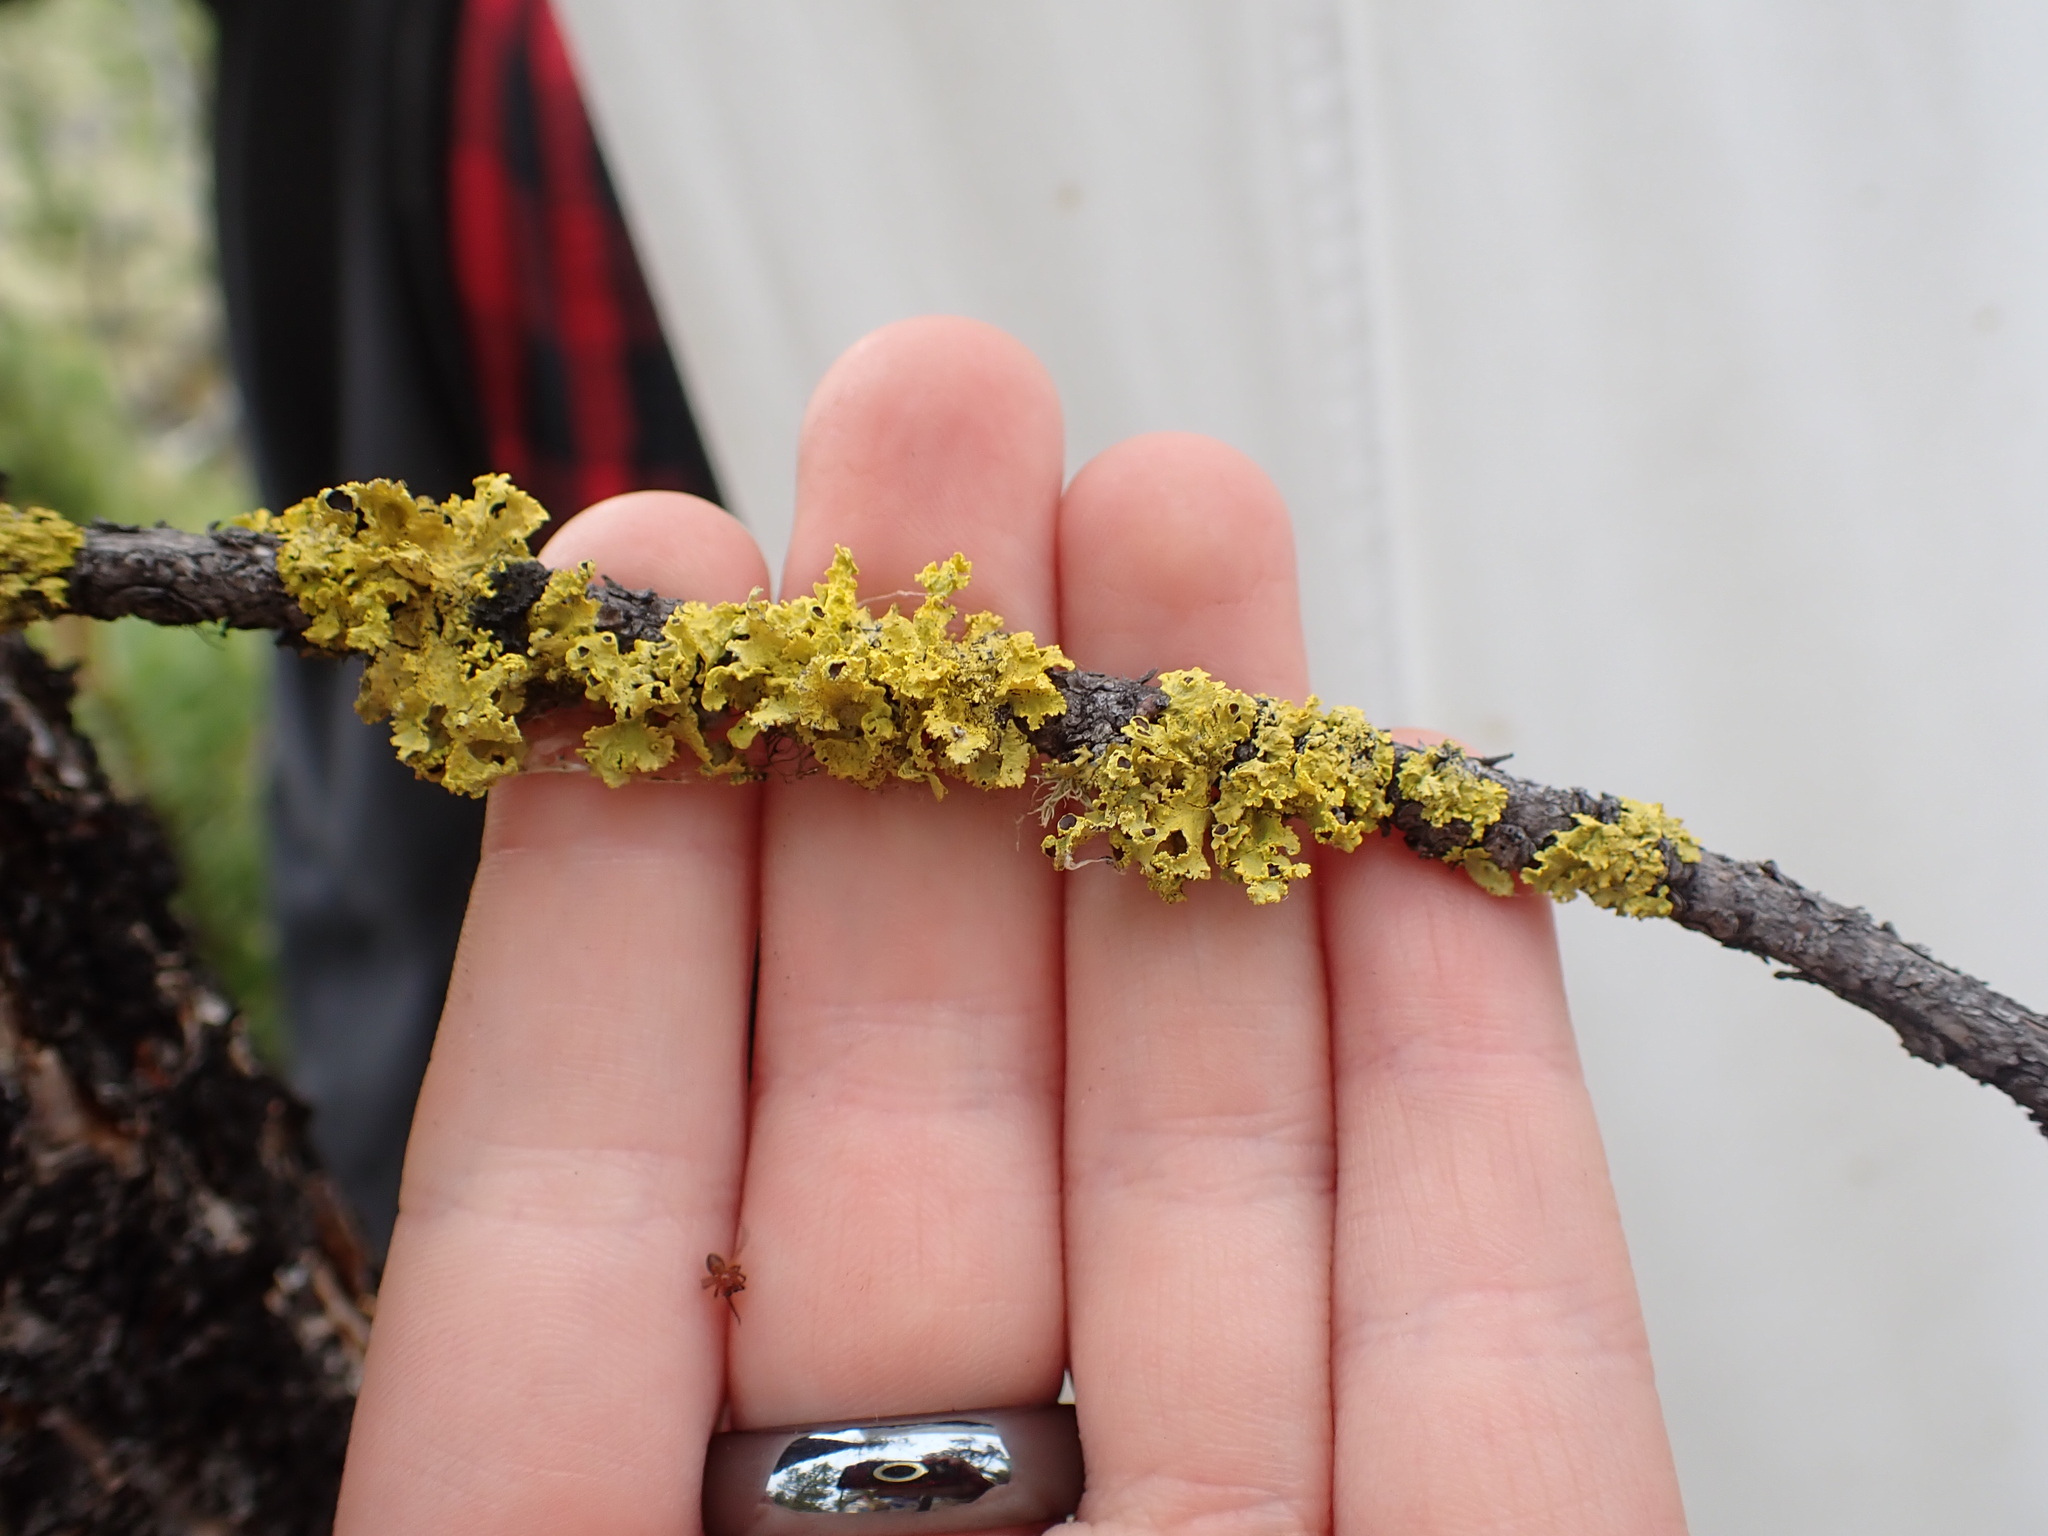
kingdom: Fungi
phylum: Ascomycota
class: Lecanoromycetes
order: Lecanorales
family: Parmeliaceae
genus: Vulpicida
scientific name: Vulpicida canadensis
